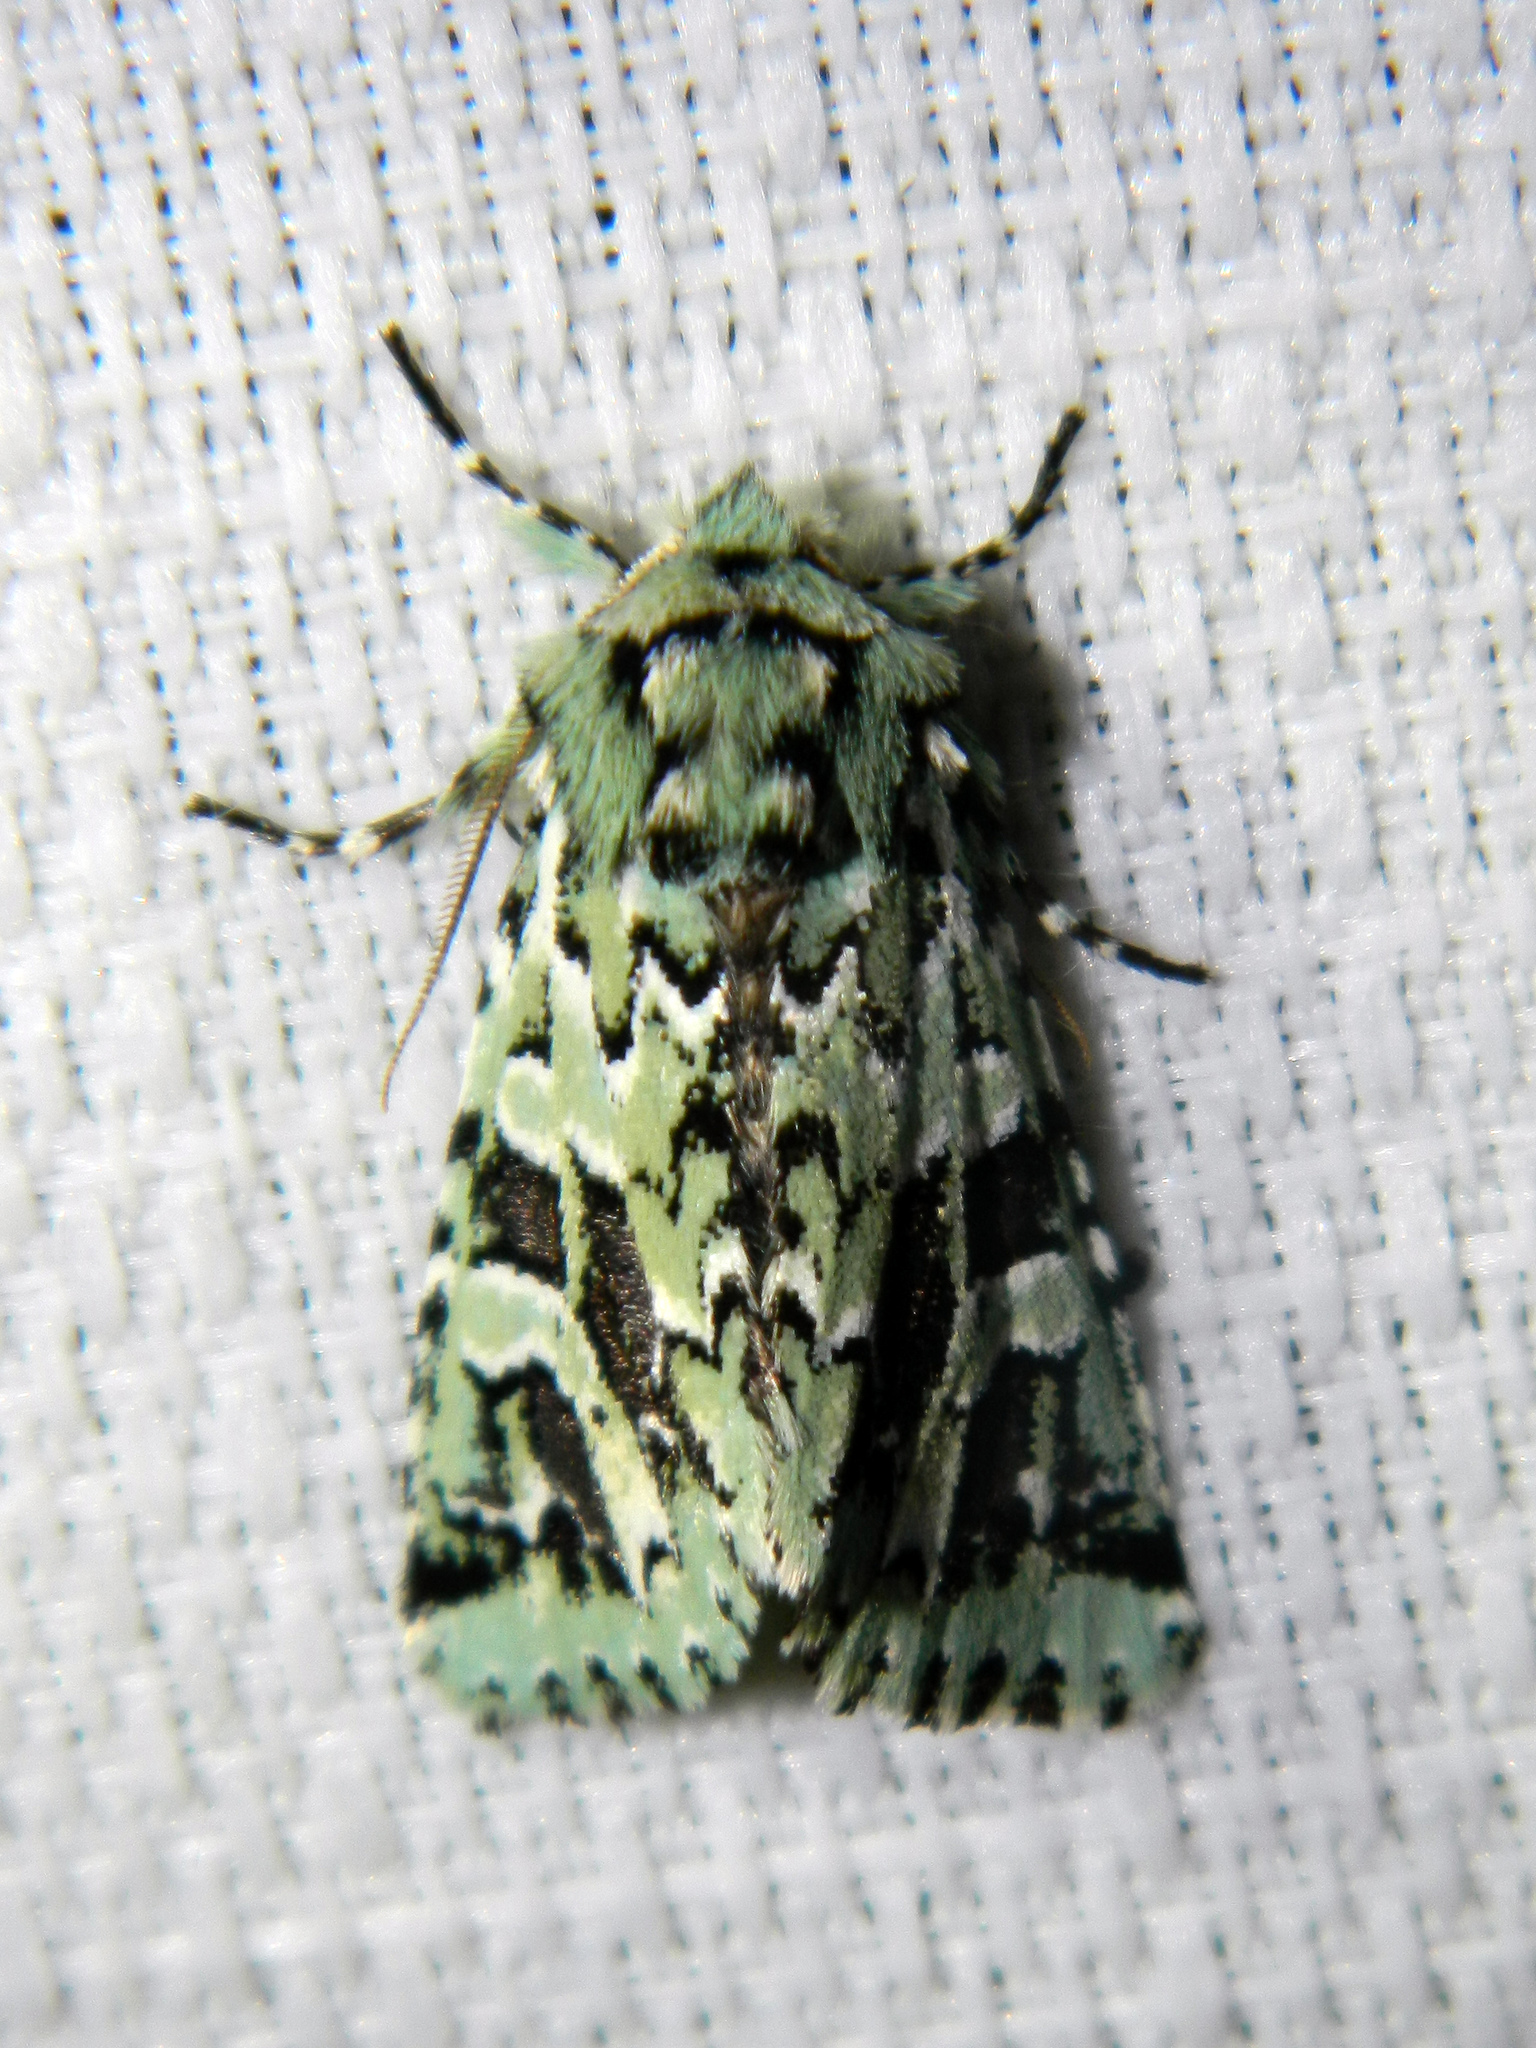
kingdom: Animalia
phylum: Arthropoda
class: Insecta
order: Lepidoptera
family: Noctuidae
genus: Feralia
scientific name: Feralia comstocki
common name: Comstock's sallow
